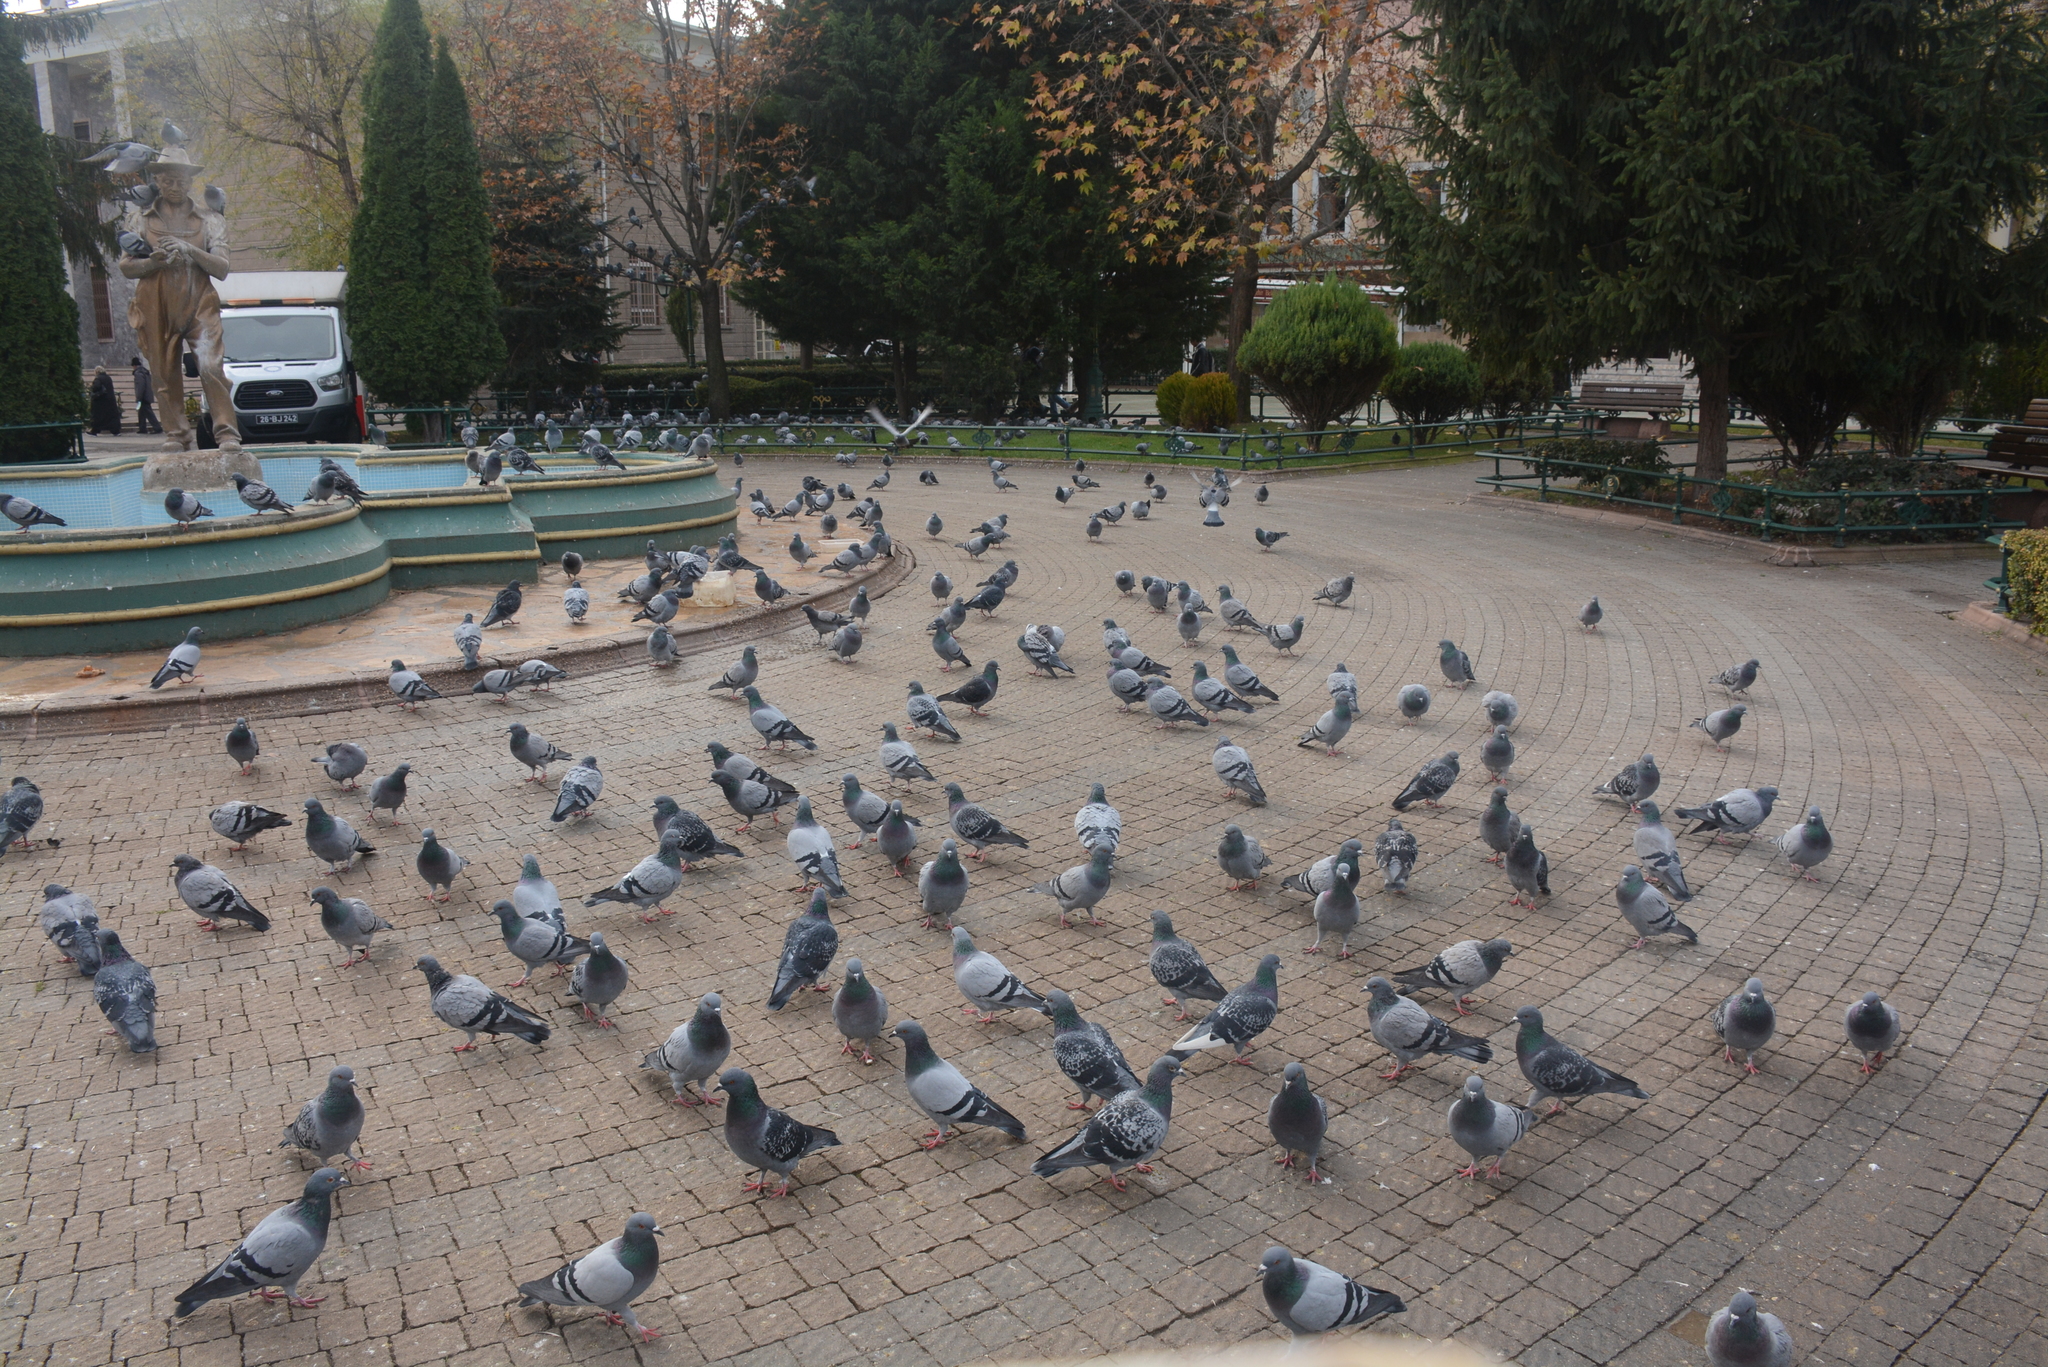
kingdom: Animalia
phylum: Chordata
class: Aves
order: Columbiformes
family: Columbidae
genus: Columba
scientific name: Columba livia
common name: Rock pigeon
